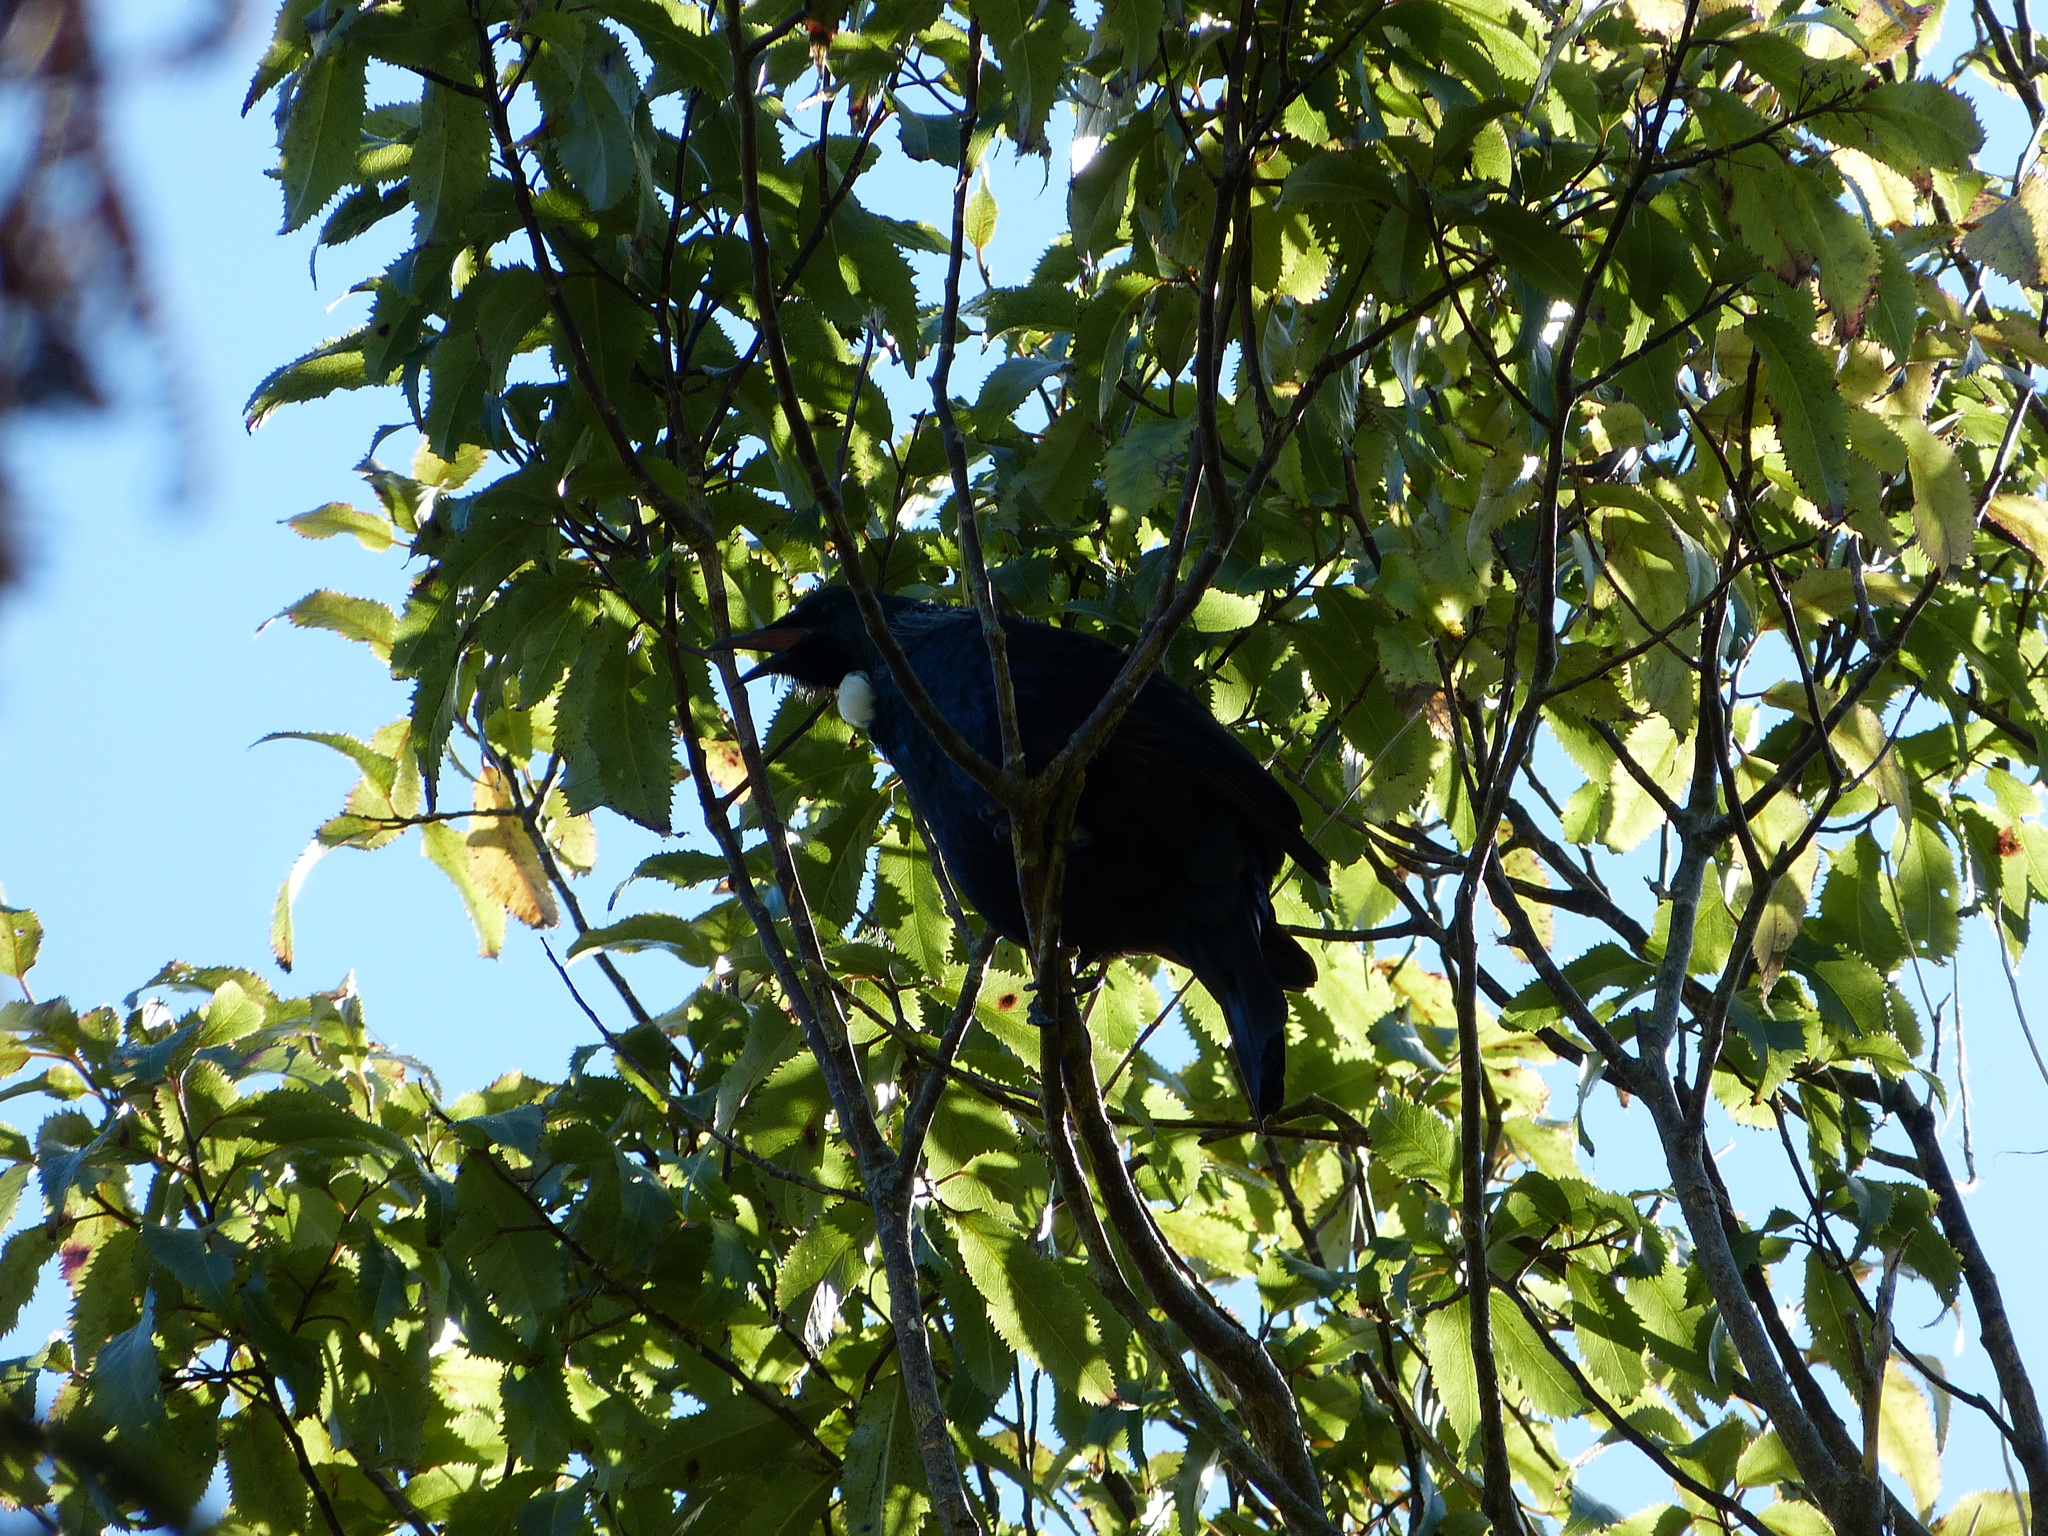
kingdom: Animalia
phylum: Chordata
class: Aves
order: Passeriformes
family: Meliphagidae
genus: Prosthemadera
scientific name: Prosthemadera novaeseelandiae
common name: Tui
